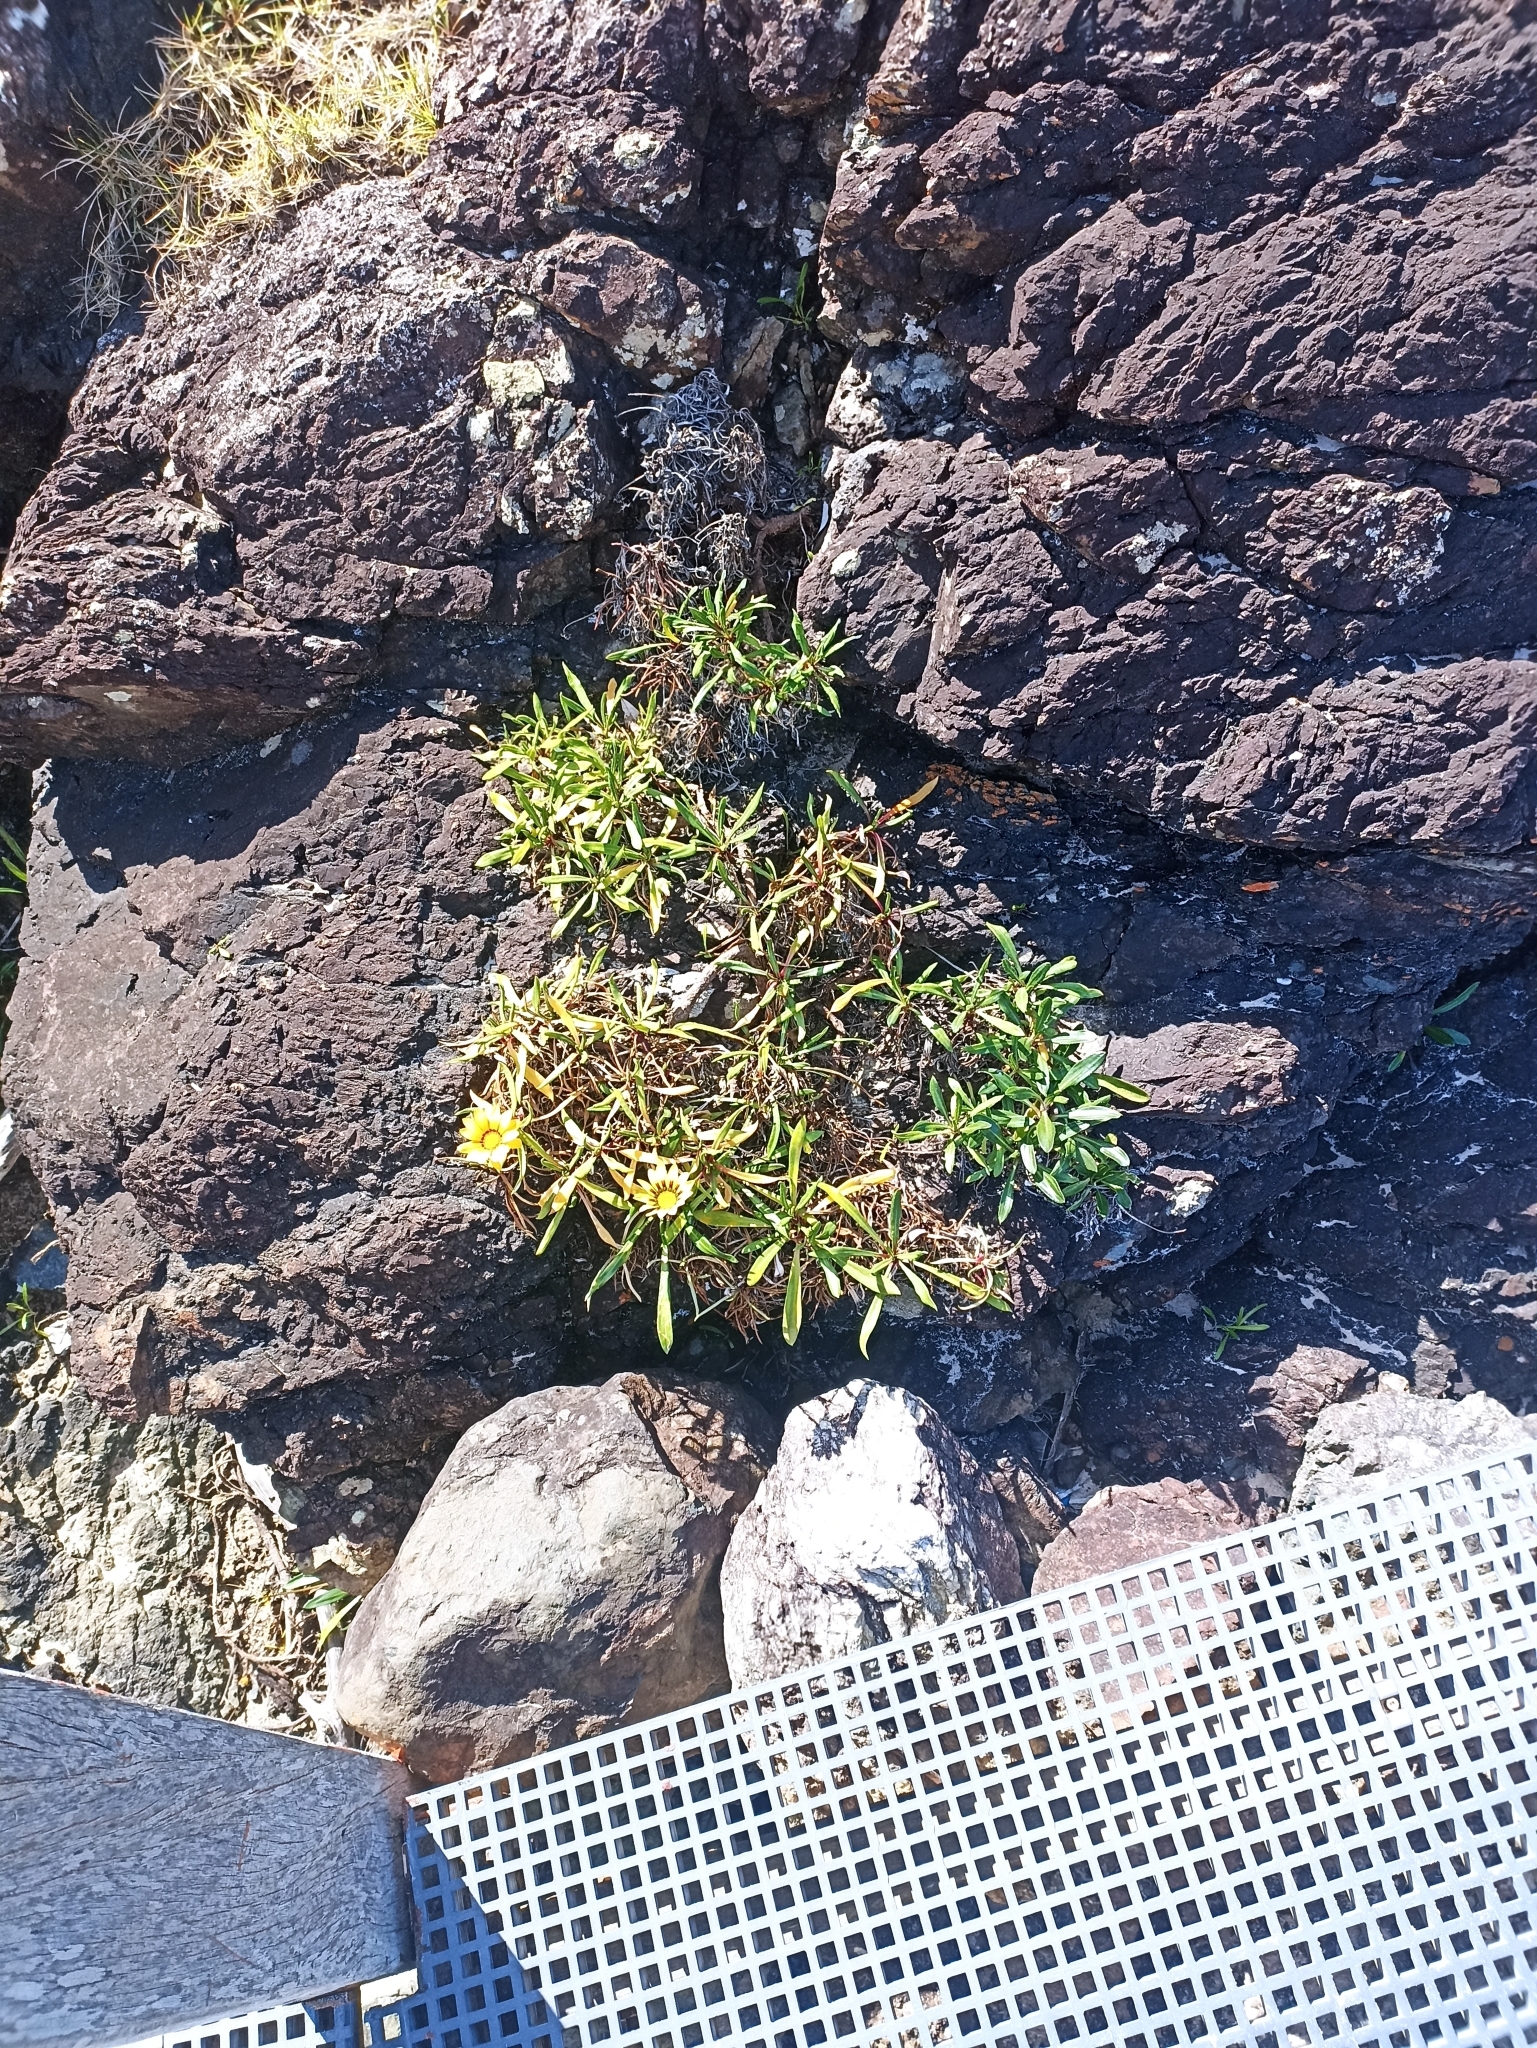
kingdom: Plantae
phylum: Tracheophyta
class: Magnoliopsida
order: Asterales
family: Asteraceae
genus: Gazania
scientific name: Gazania splendens
